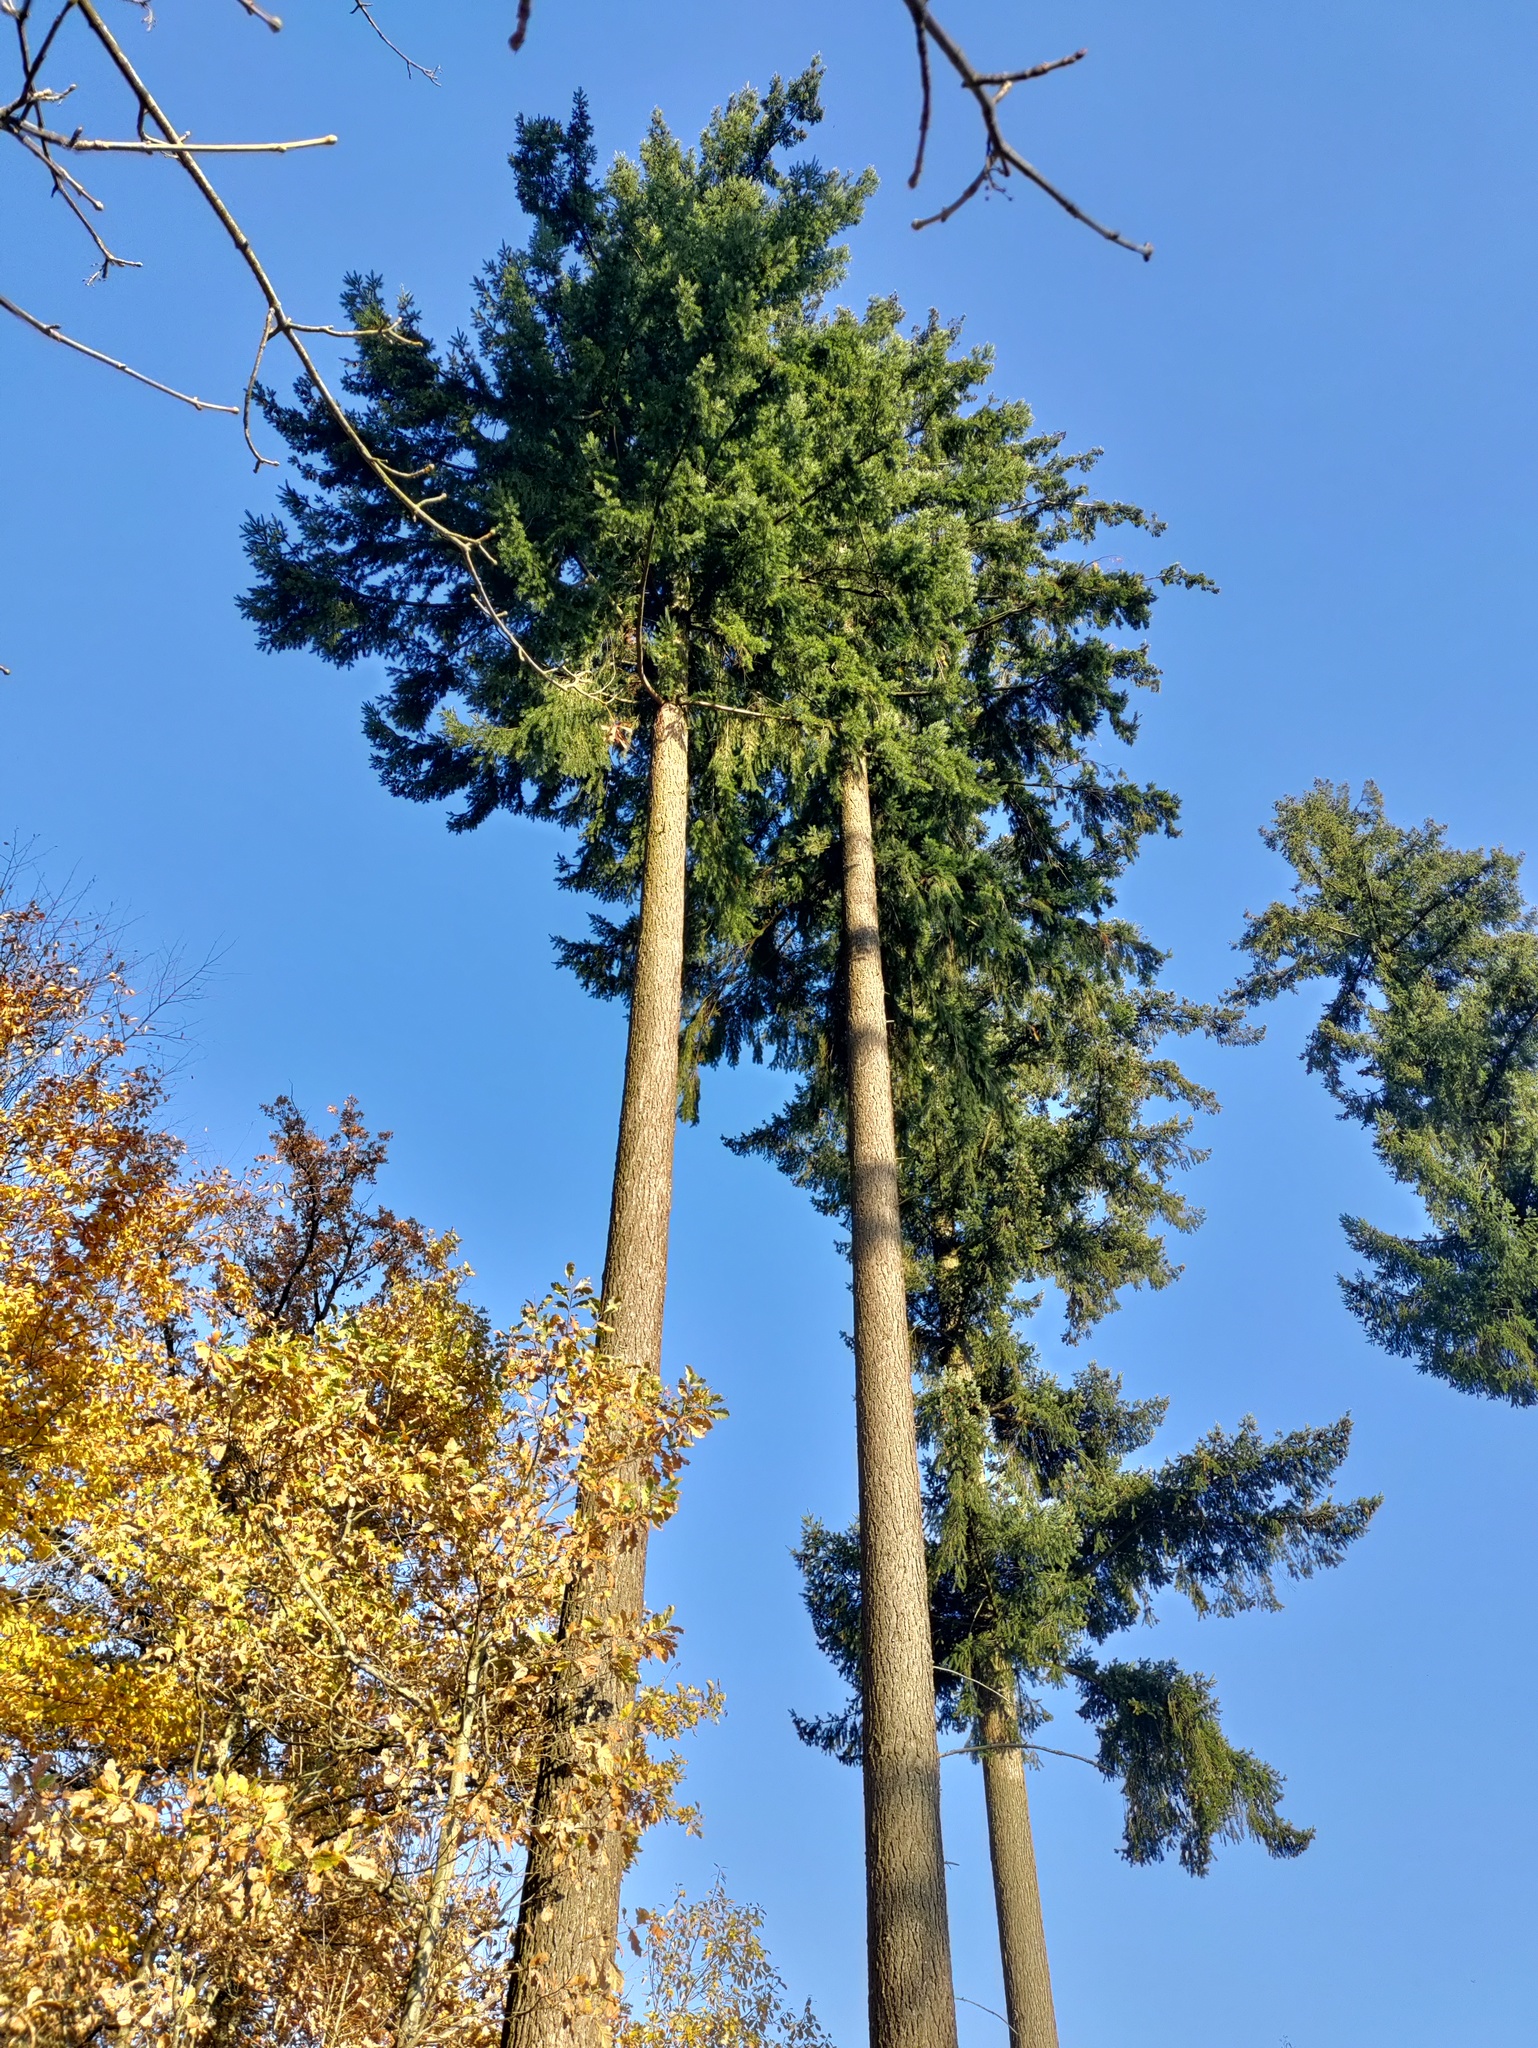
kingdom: Plantae
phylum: Tracheophyta
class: Pinopsida
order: Pinales
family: Pinaceae
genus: Pseudotsuga
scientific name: Pseudotsuga menziesii
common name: Douglas fir
